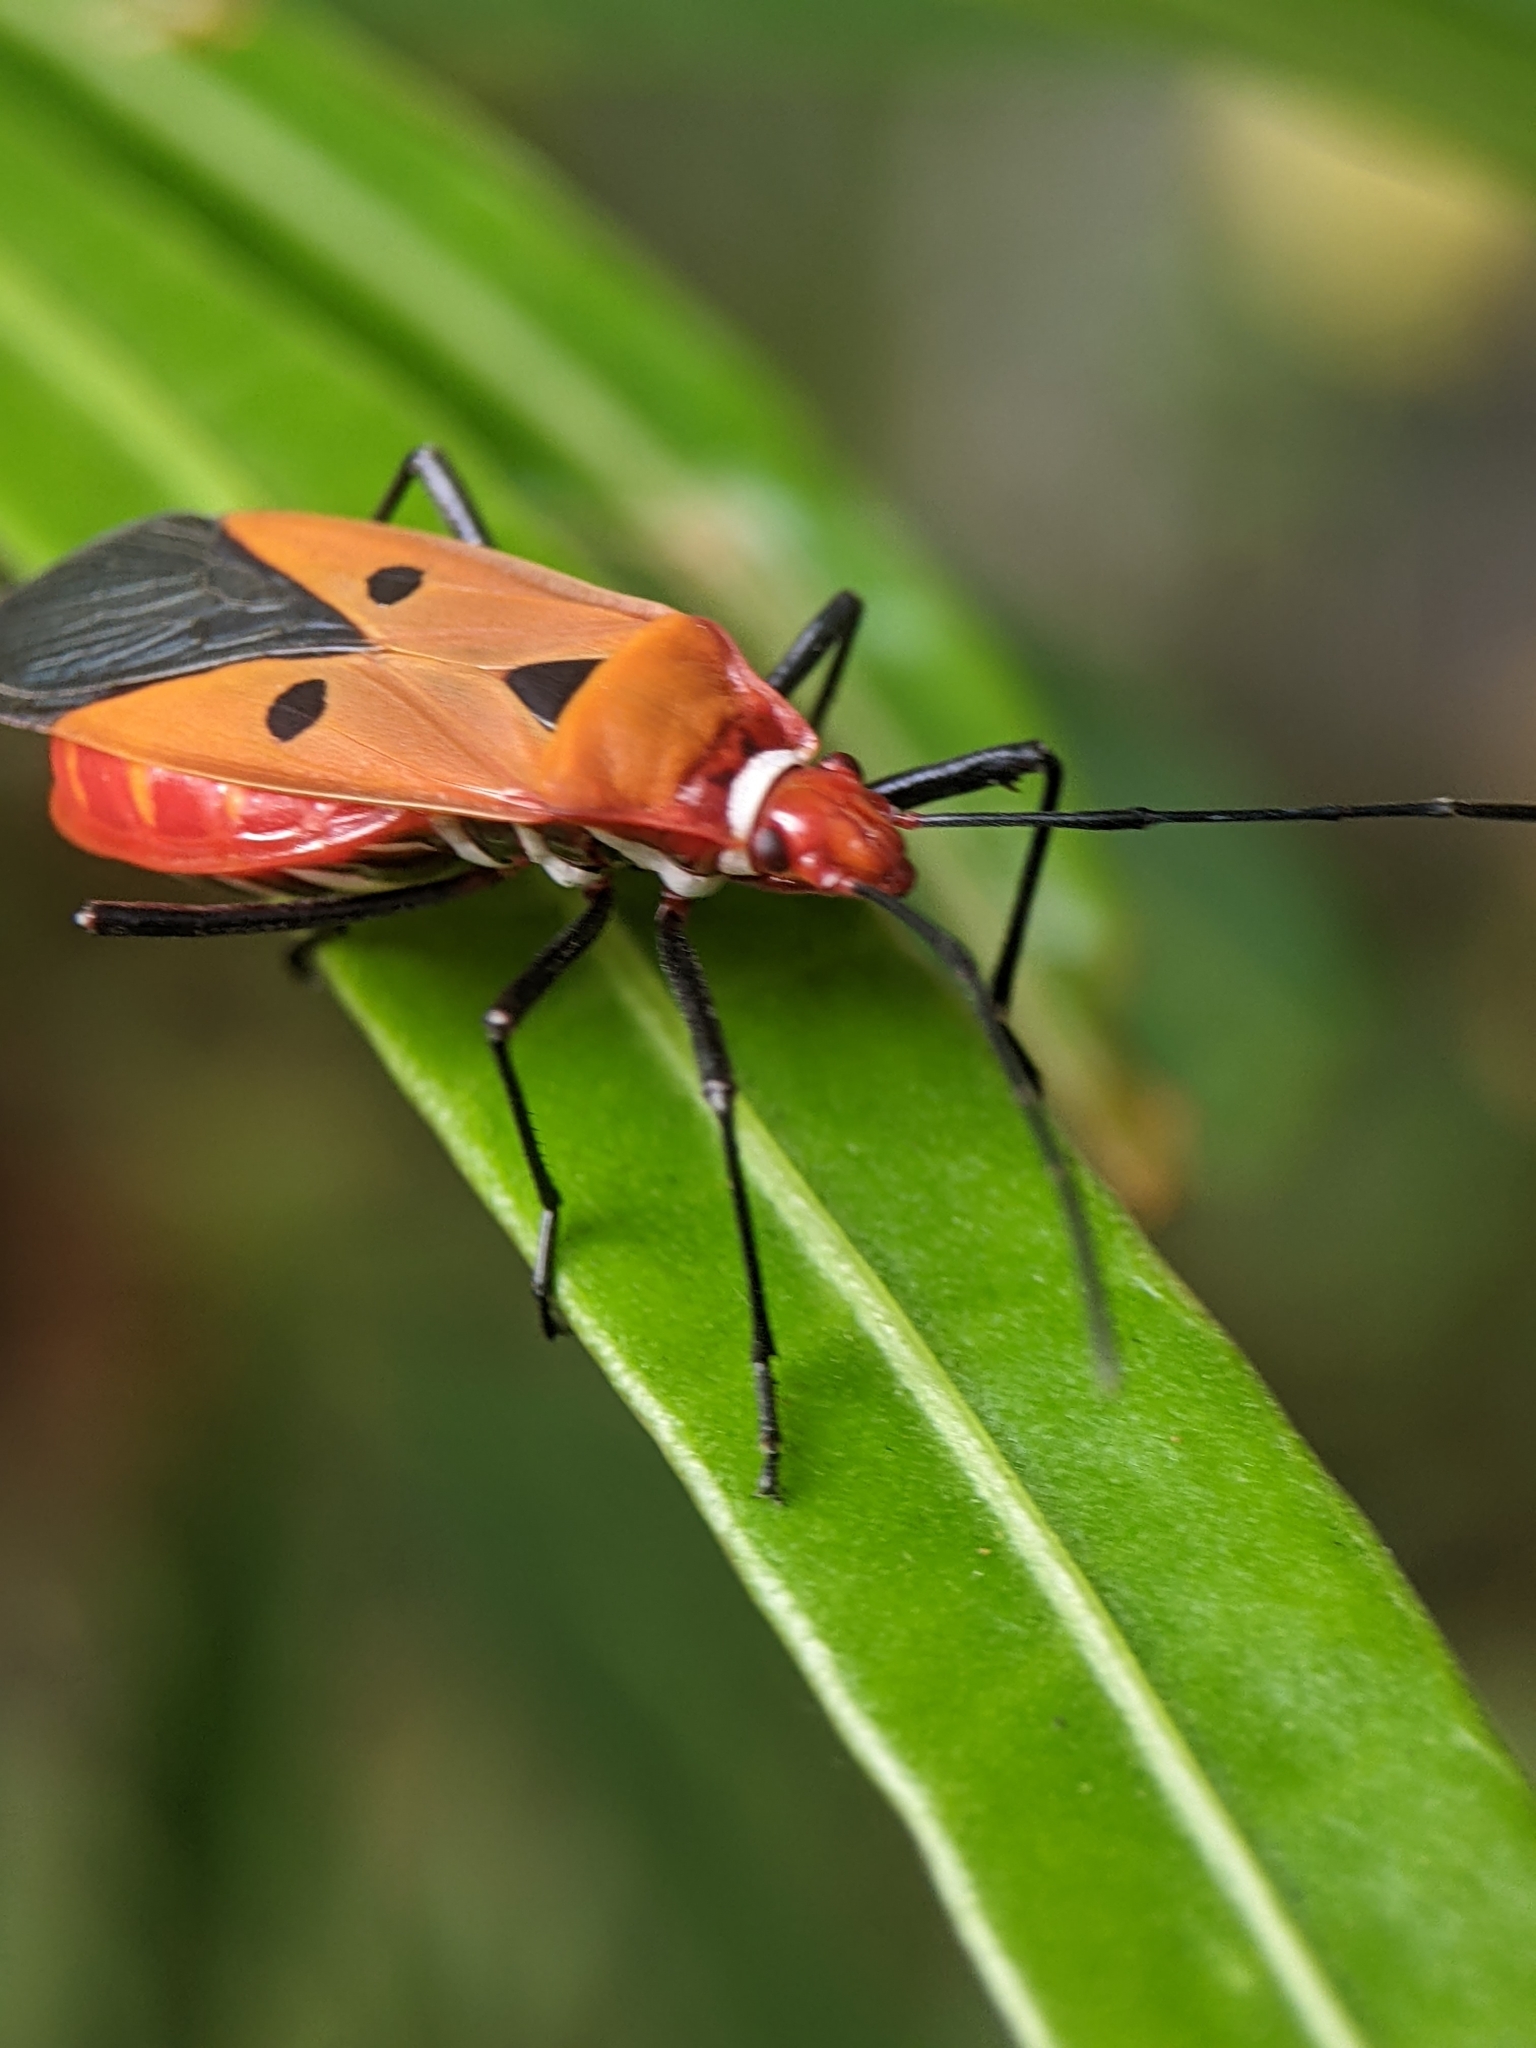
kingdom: Animalia
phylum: Arthropoda
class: Insecta
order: Hemiptera
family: Pyrrhocoridae
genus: Dysdercus
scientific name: Dysdercus cingulatus
